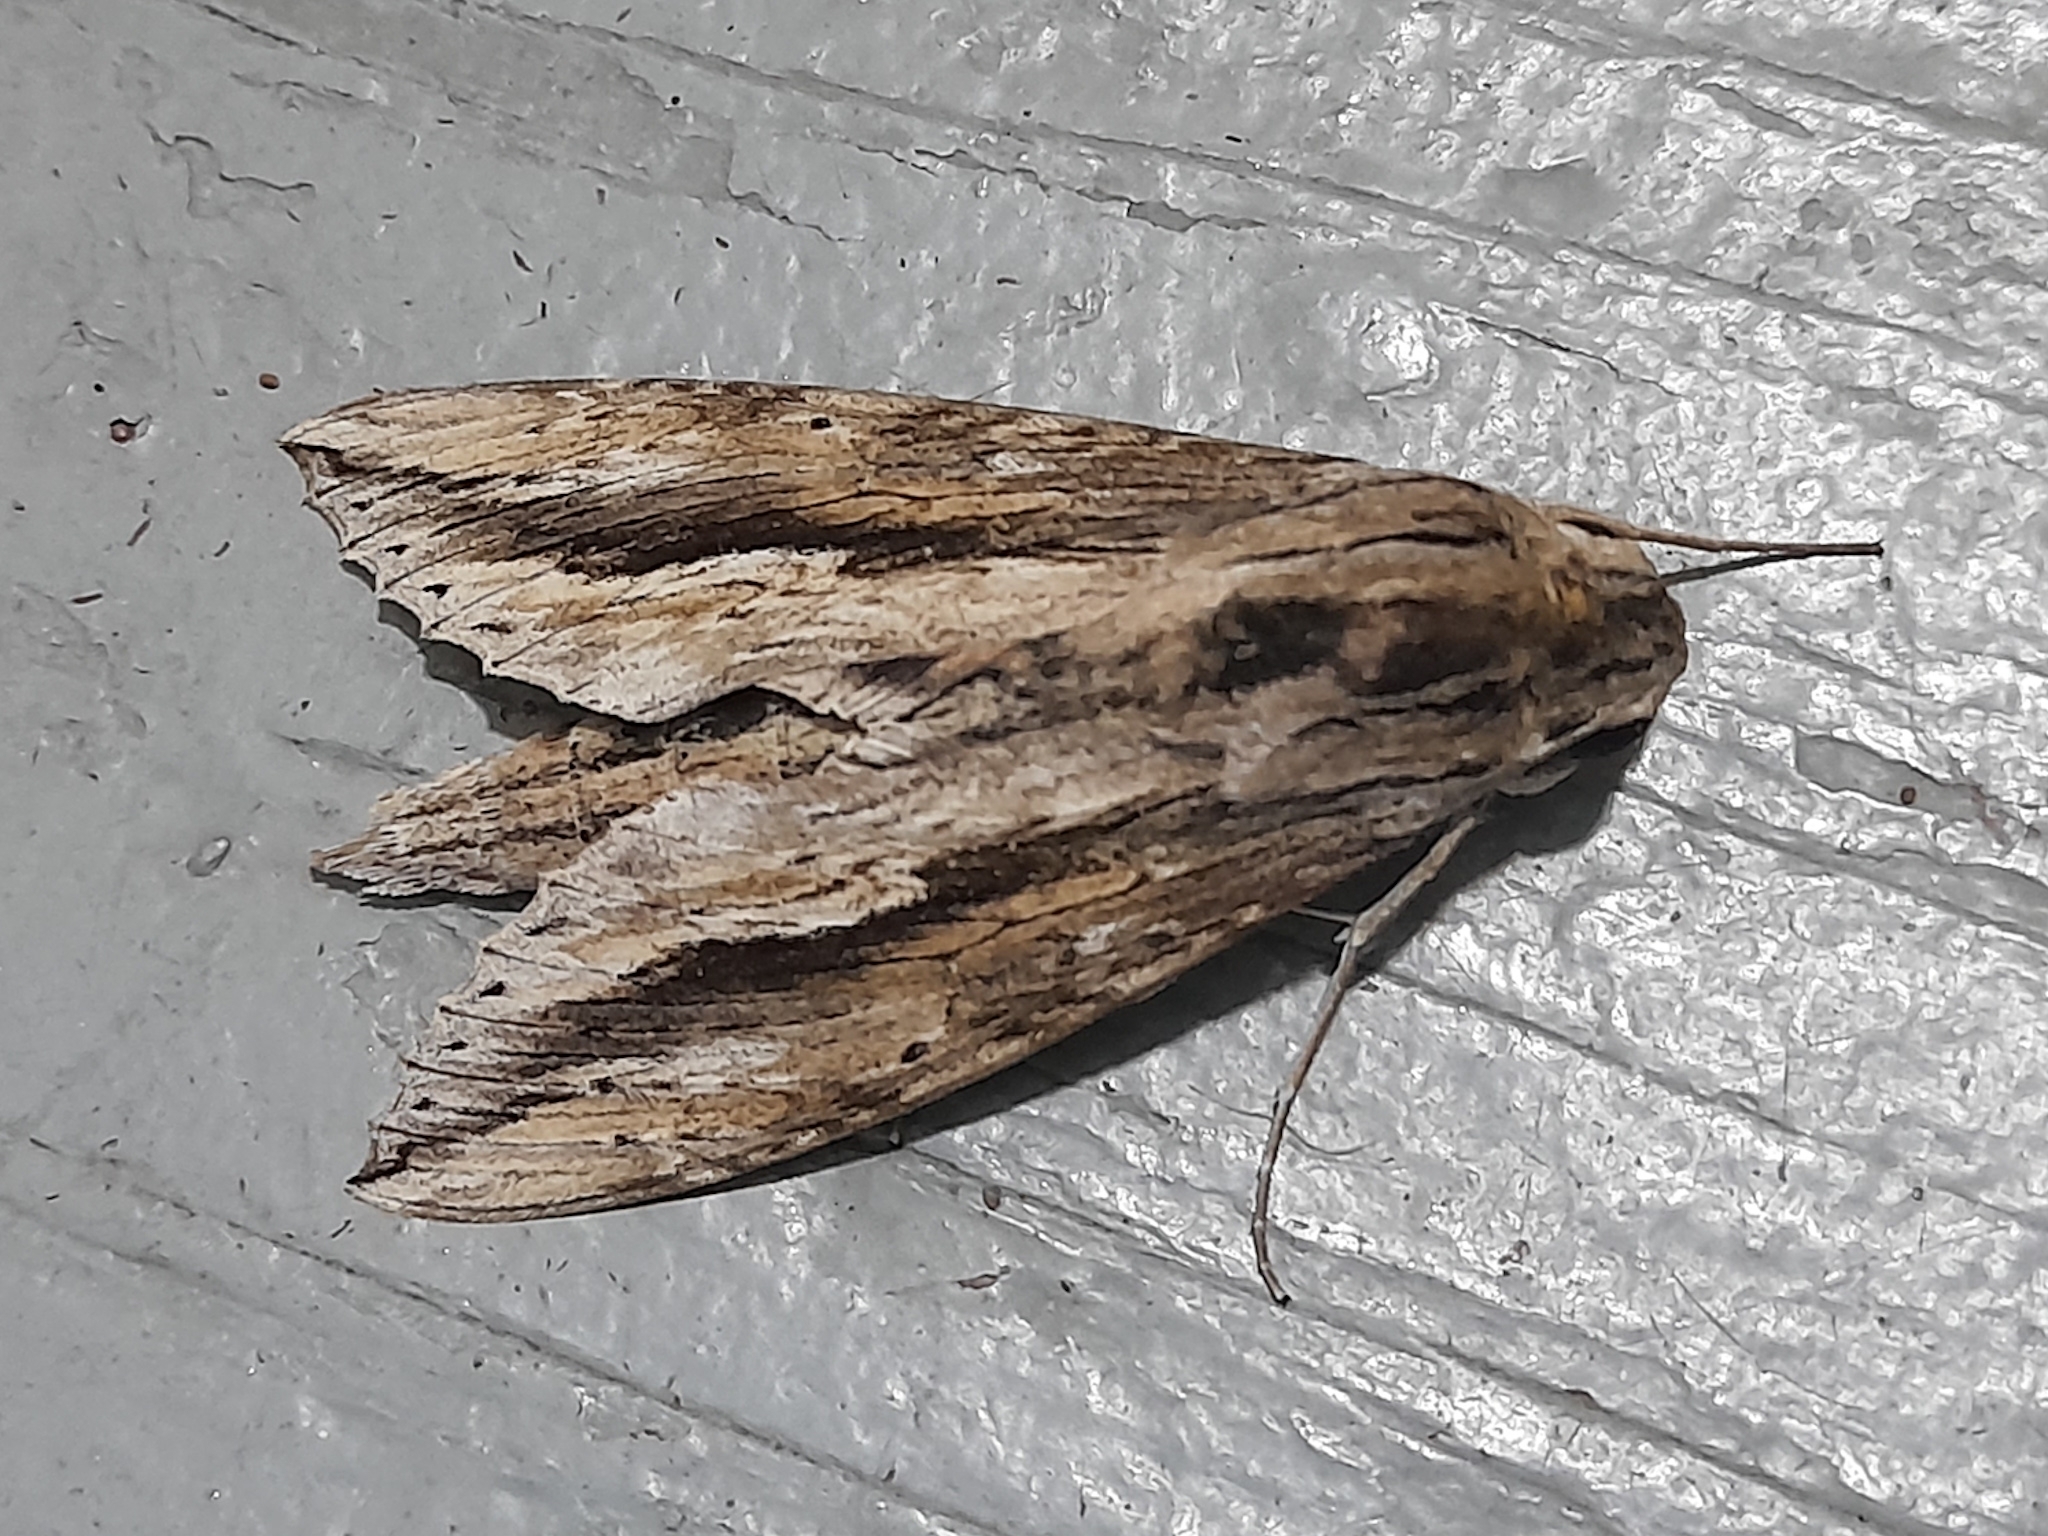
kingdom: Animalia
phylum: Arthropoda
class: Insecta
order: Lepidoptera
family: Sphingidae
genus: Erinnyis
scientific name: Erinnyis ello
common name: Ello sphinx
